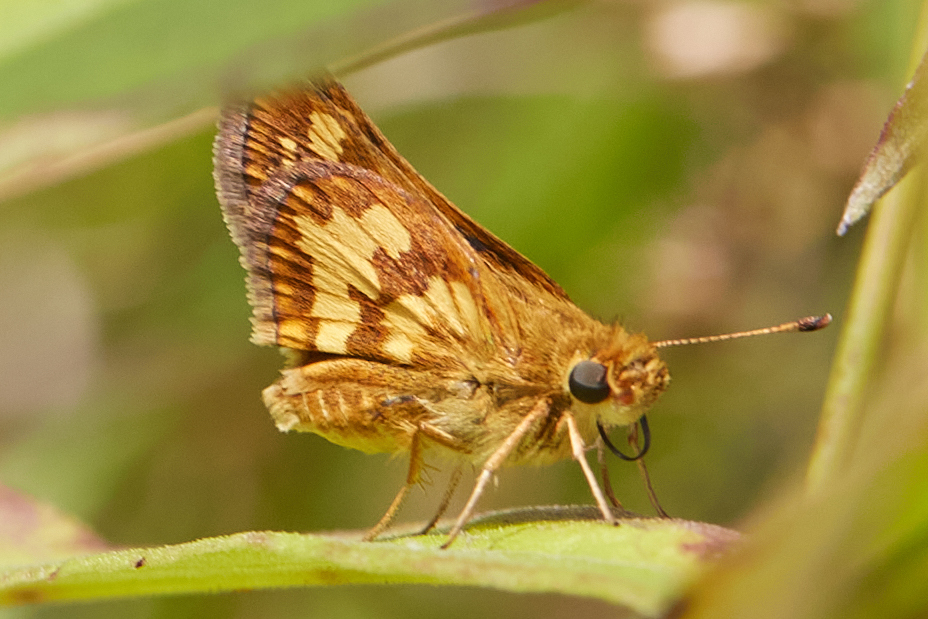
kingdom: Animalia
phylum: Arthropoda
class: Insecta
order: Lepidoptera
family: Hesperiidae
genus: Polites
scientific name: Polites coras
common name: Peck's skipper
